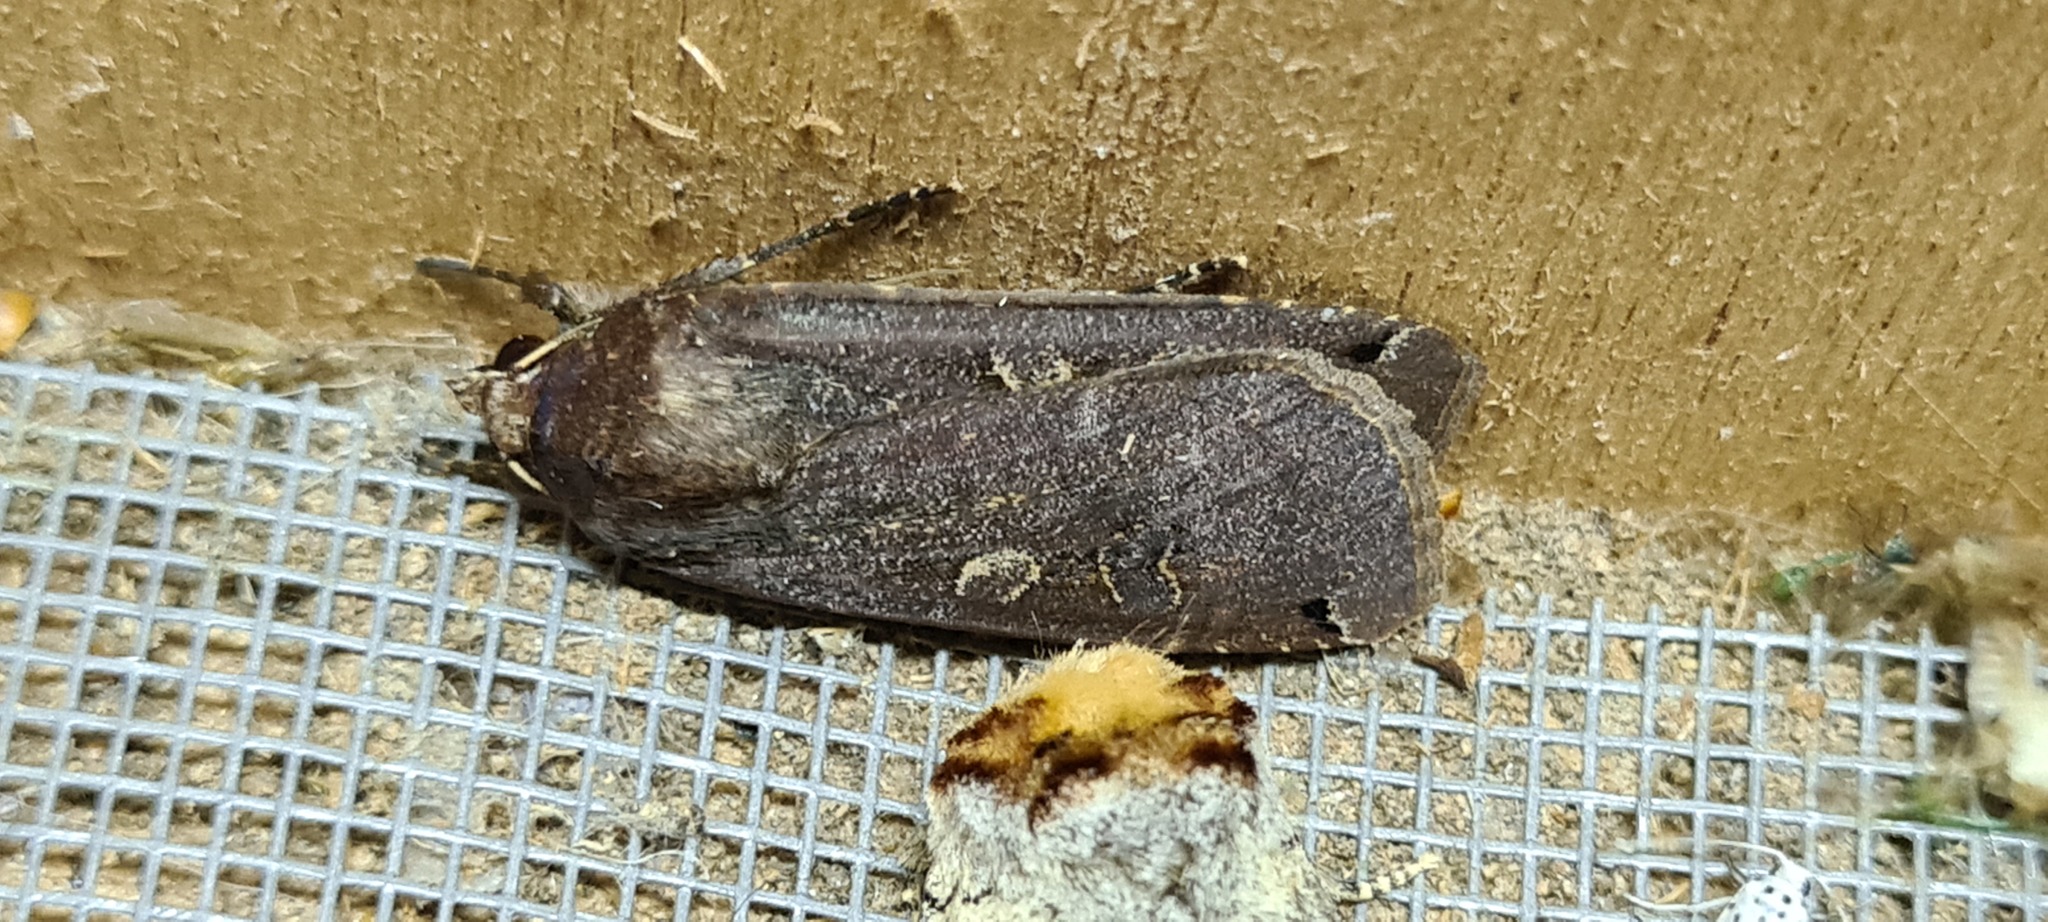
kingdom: Animalia
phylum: Arthropoda
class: Insecta
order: Lepidoptera
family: Noctuidae
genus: Noctua
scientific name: Noctua pronuba
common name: Large yellow underwing
